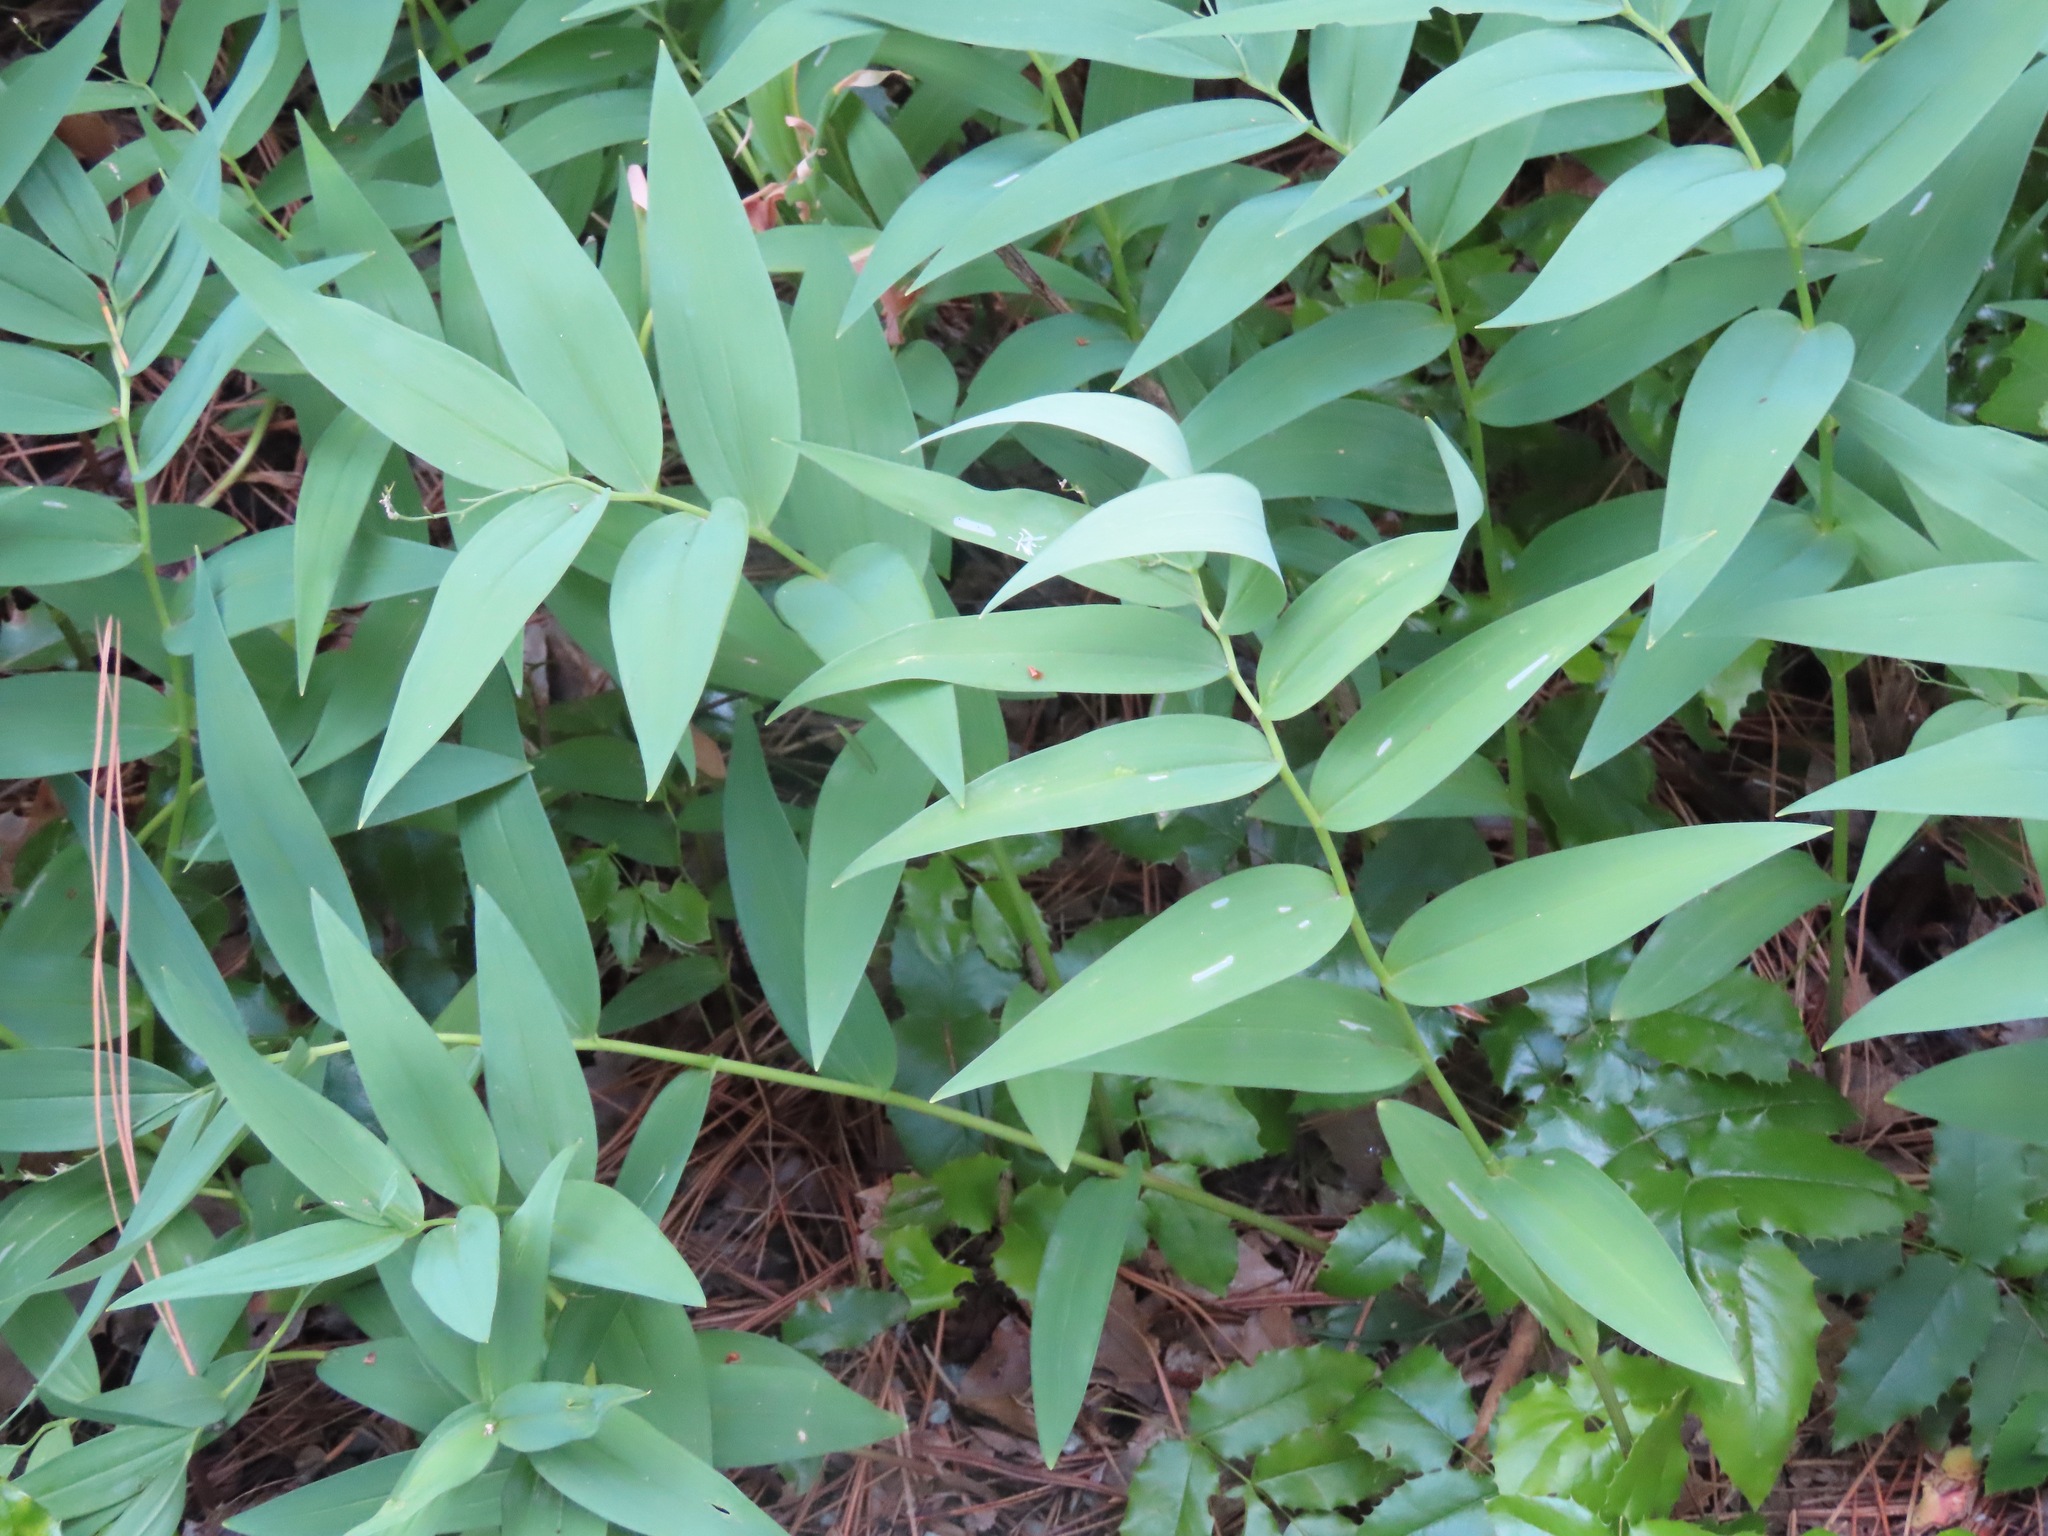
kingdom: Plantae
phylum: Tracheophyta
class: Liliopsida
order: Asparagales
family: Asparagaceae
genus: Maianthemum
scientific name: Maianthemum stellatum
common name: Little false solomon's seal
